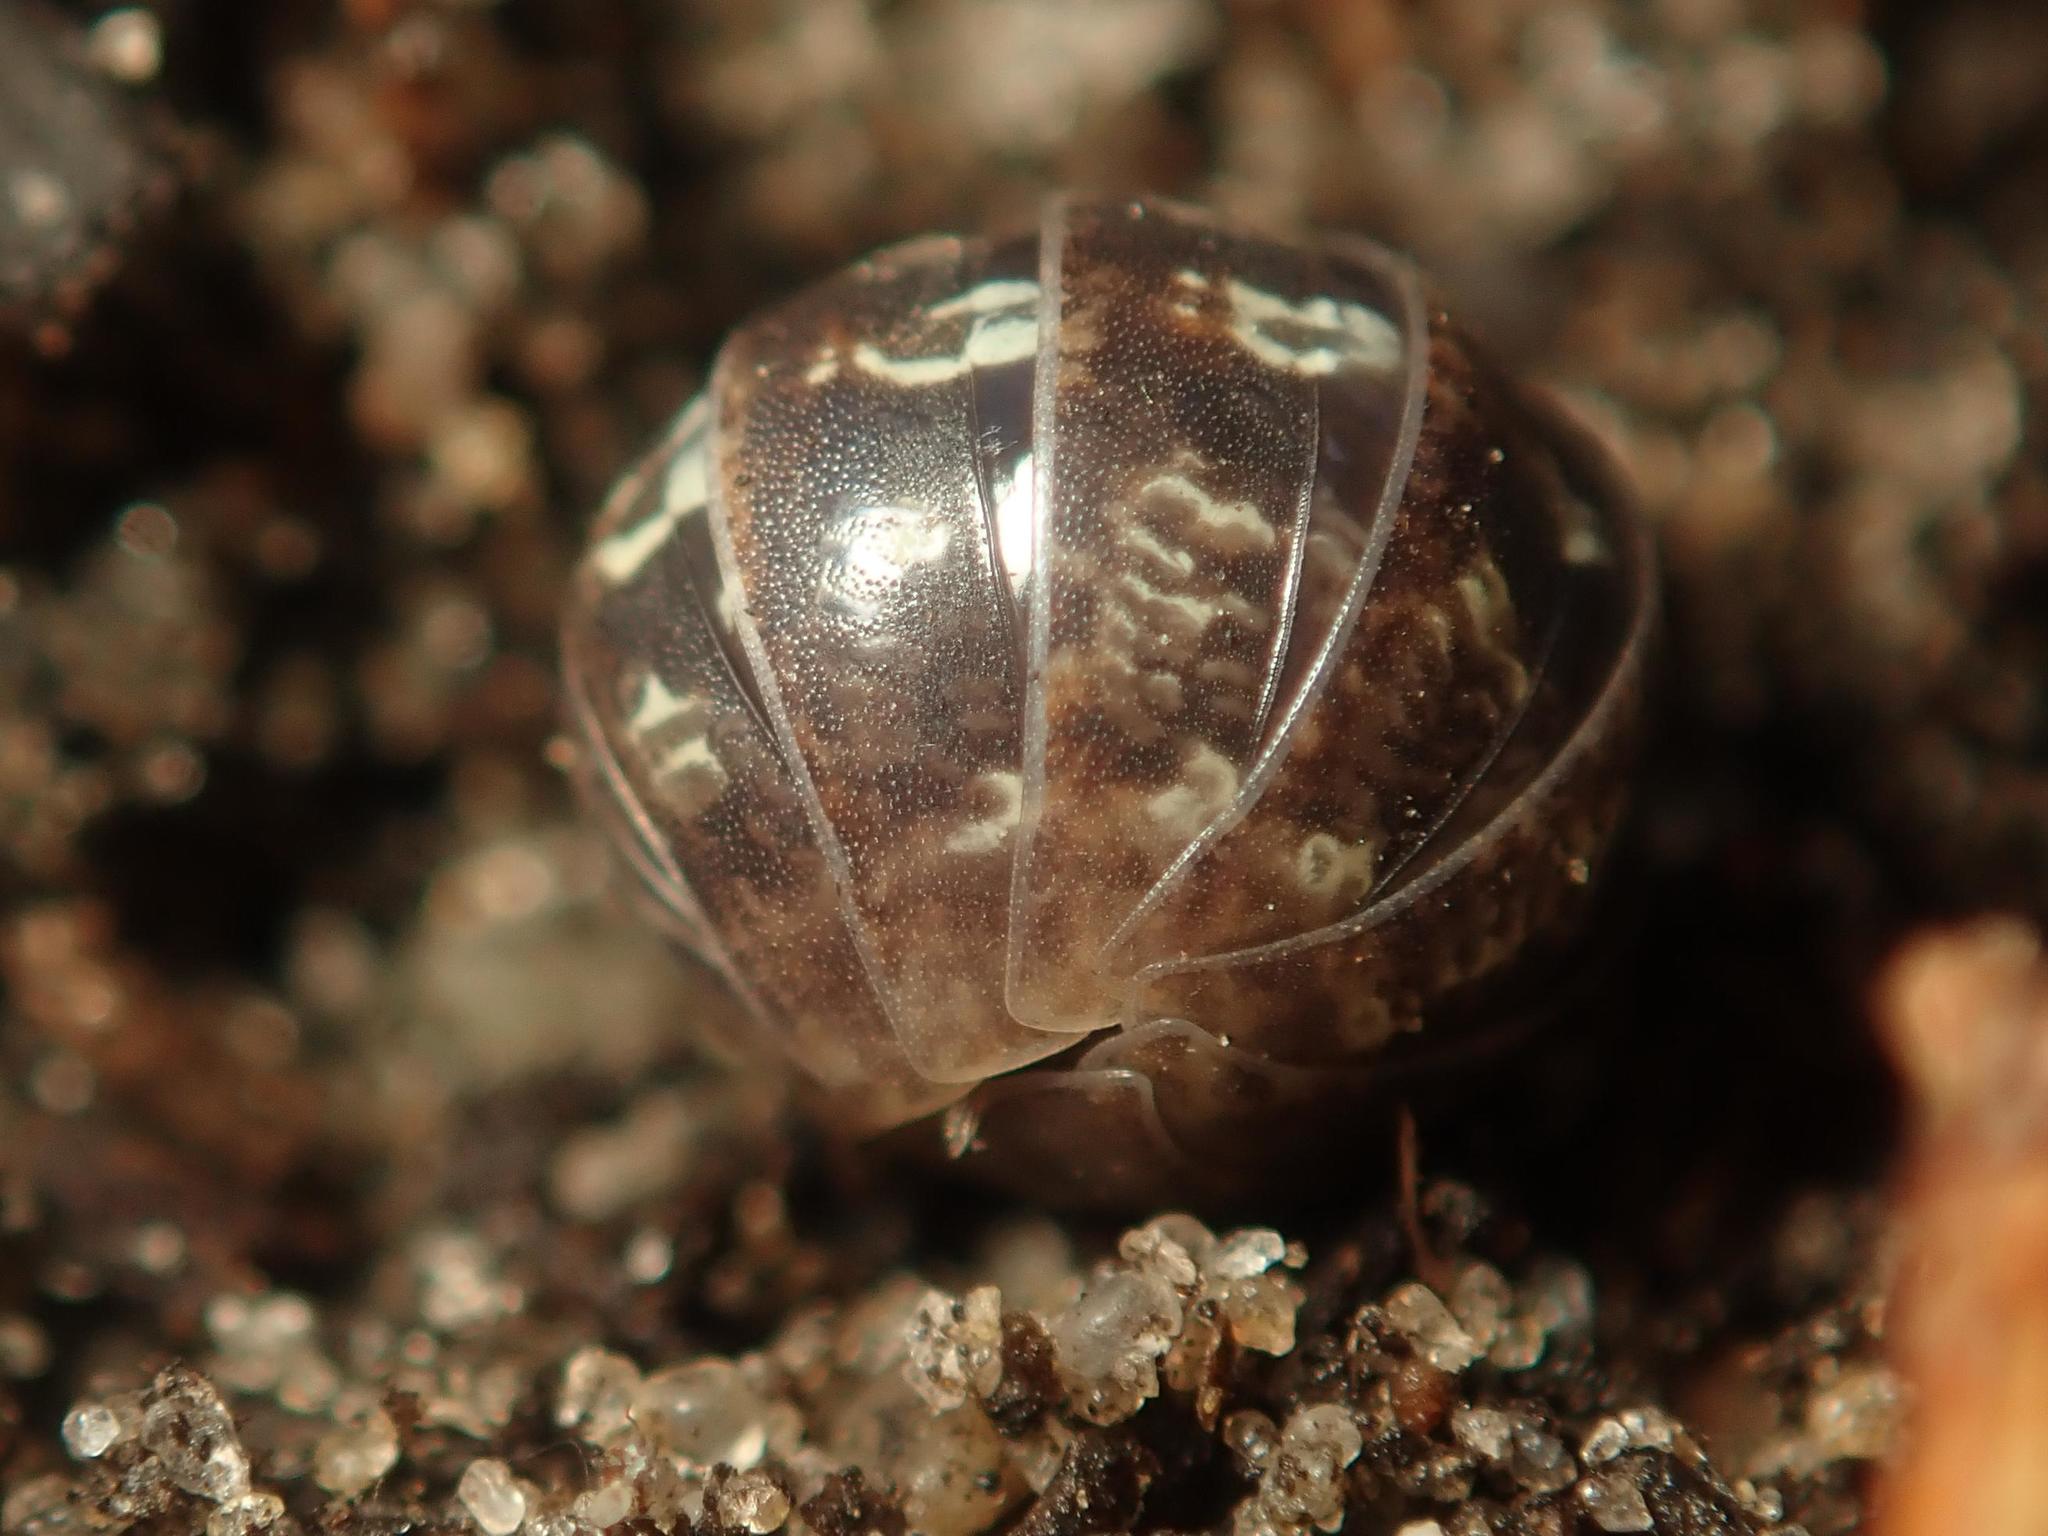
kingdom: Animalia
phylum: Arthropoda
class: Malacostraca
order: Isopoda
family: Armadillidiidae
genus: Armadillidium
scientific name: Armadillidium vulgare
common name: Common pill woodlouse
